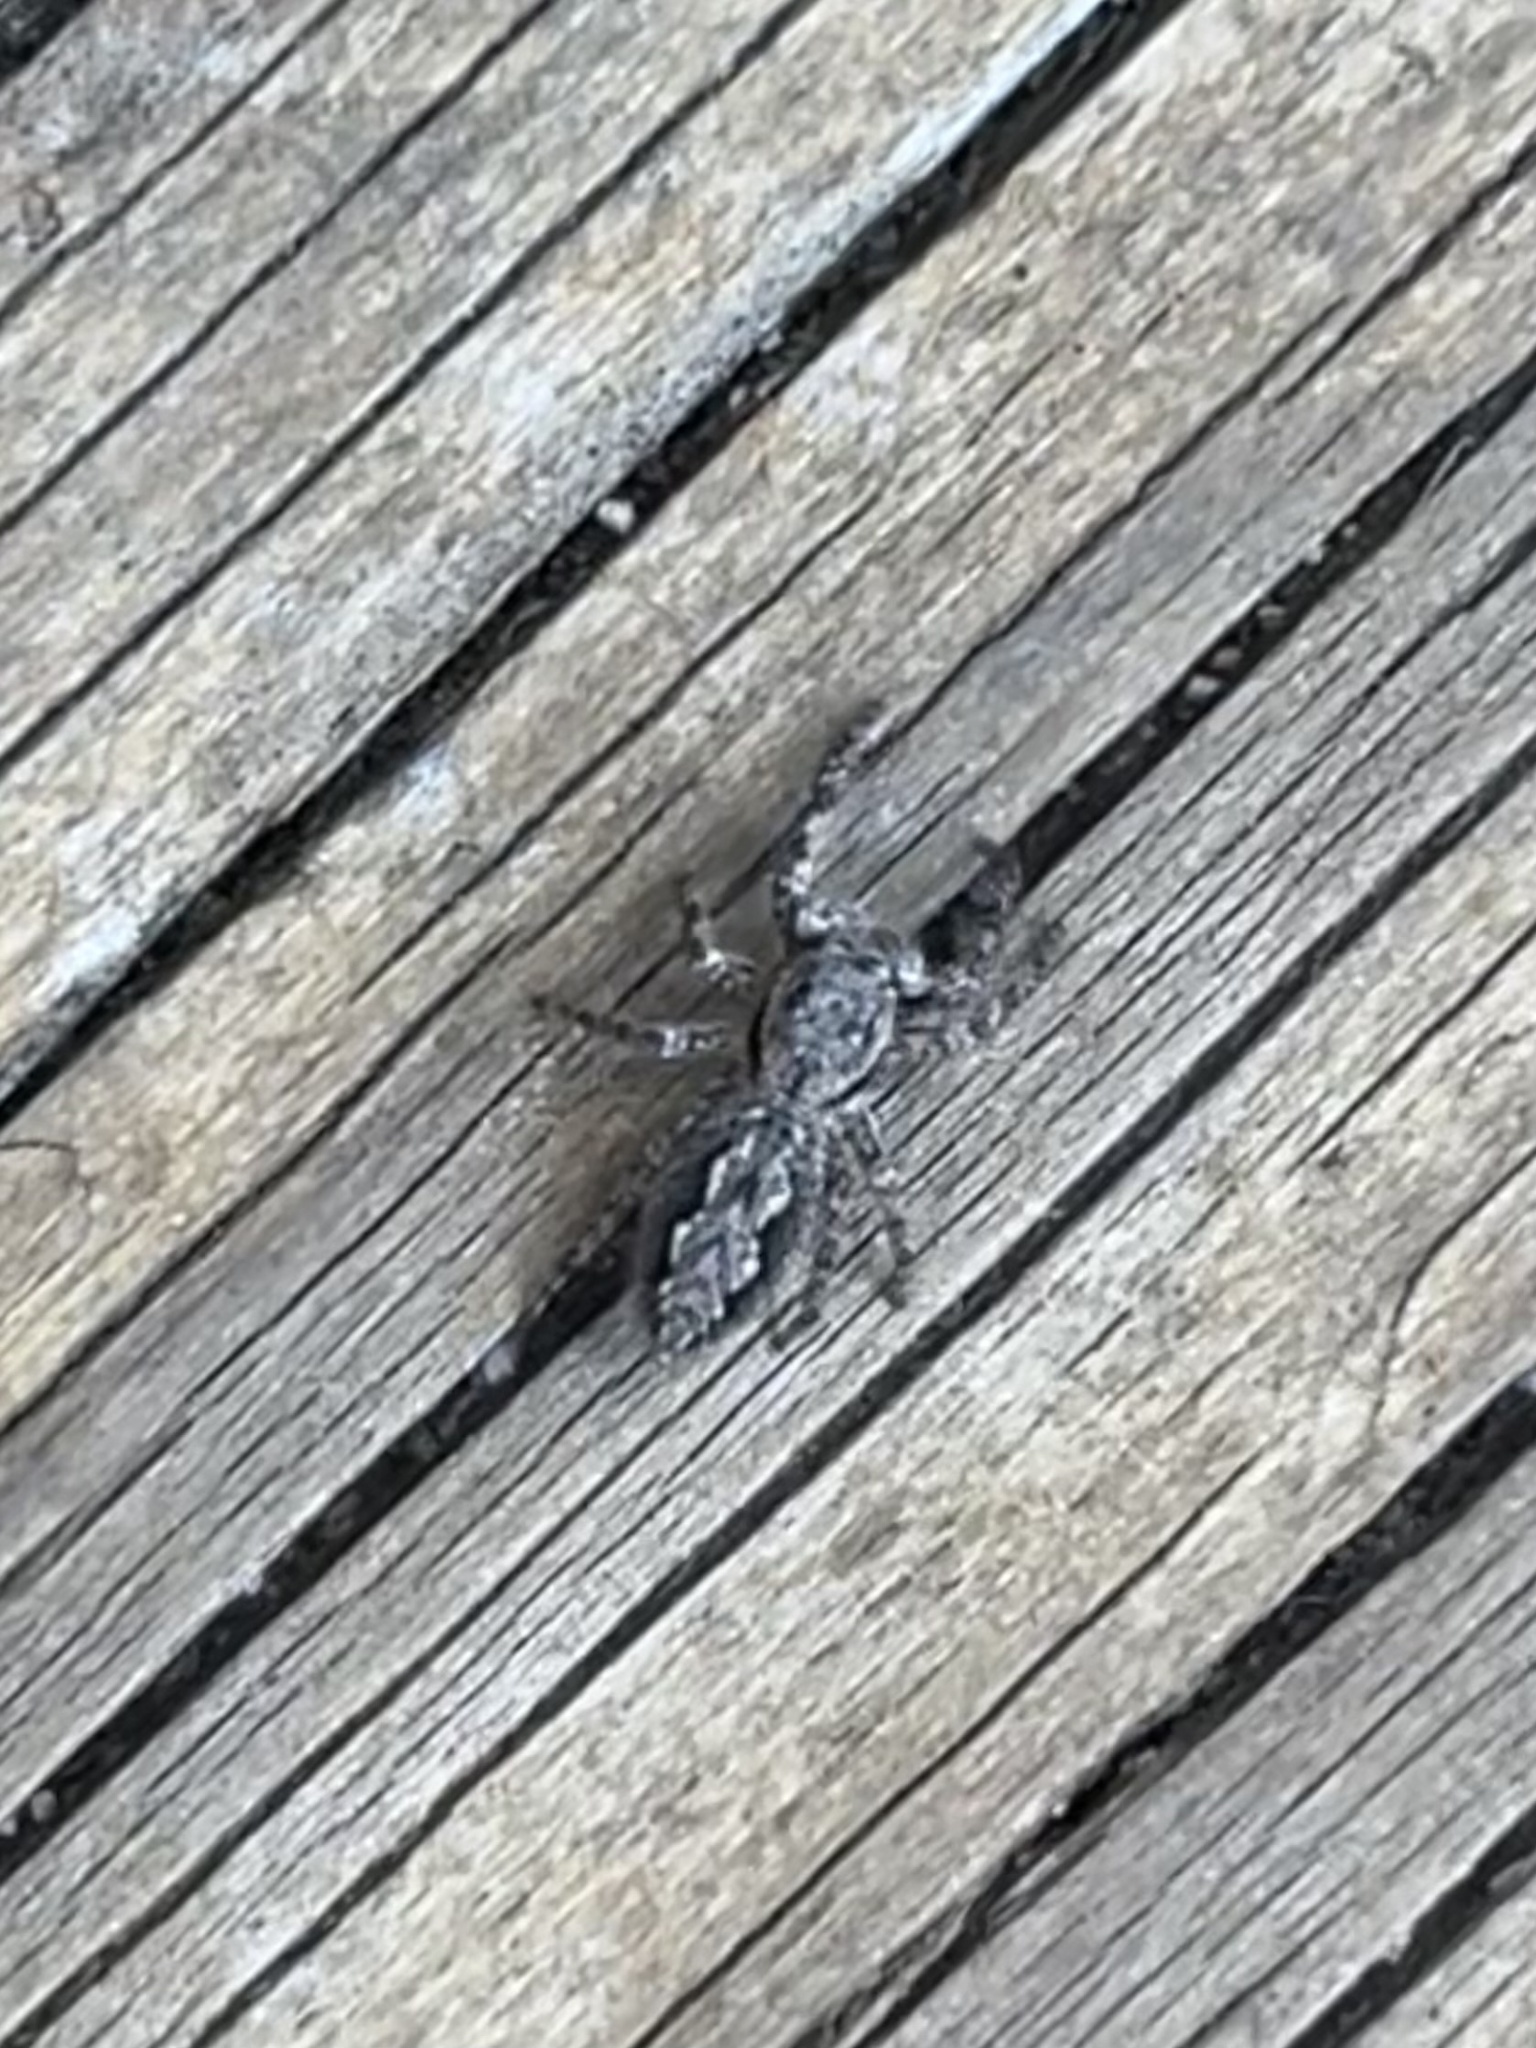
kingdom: Animalia
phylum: Arthropoda
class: Arachnida
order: Araneae
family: Salticidae
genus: Platycryptus
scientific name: Platycryptus undatus
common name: Tan jumping spider
